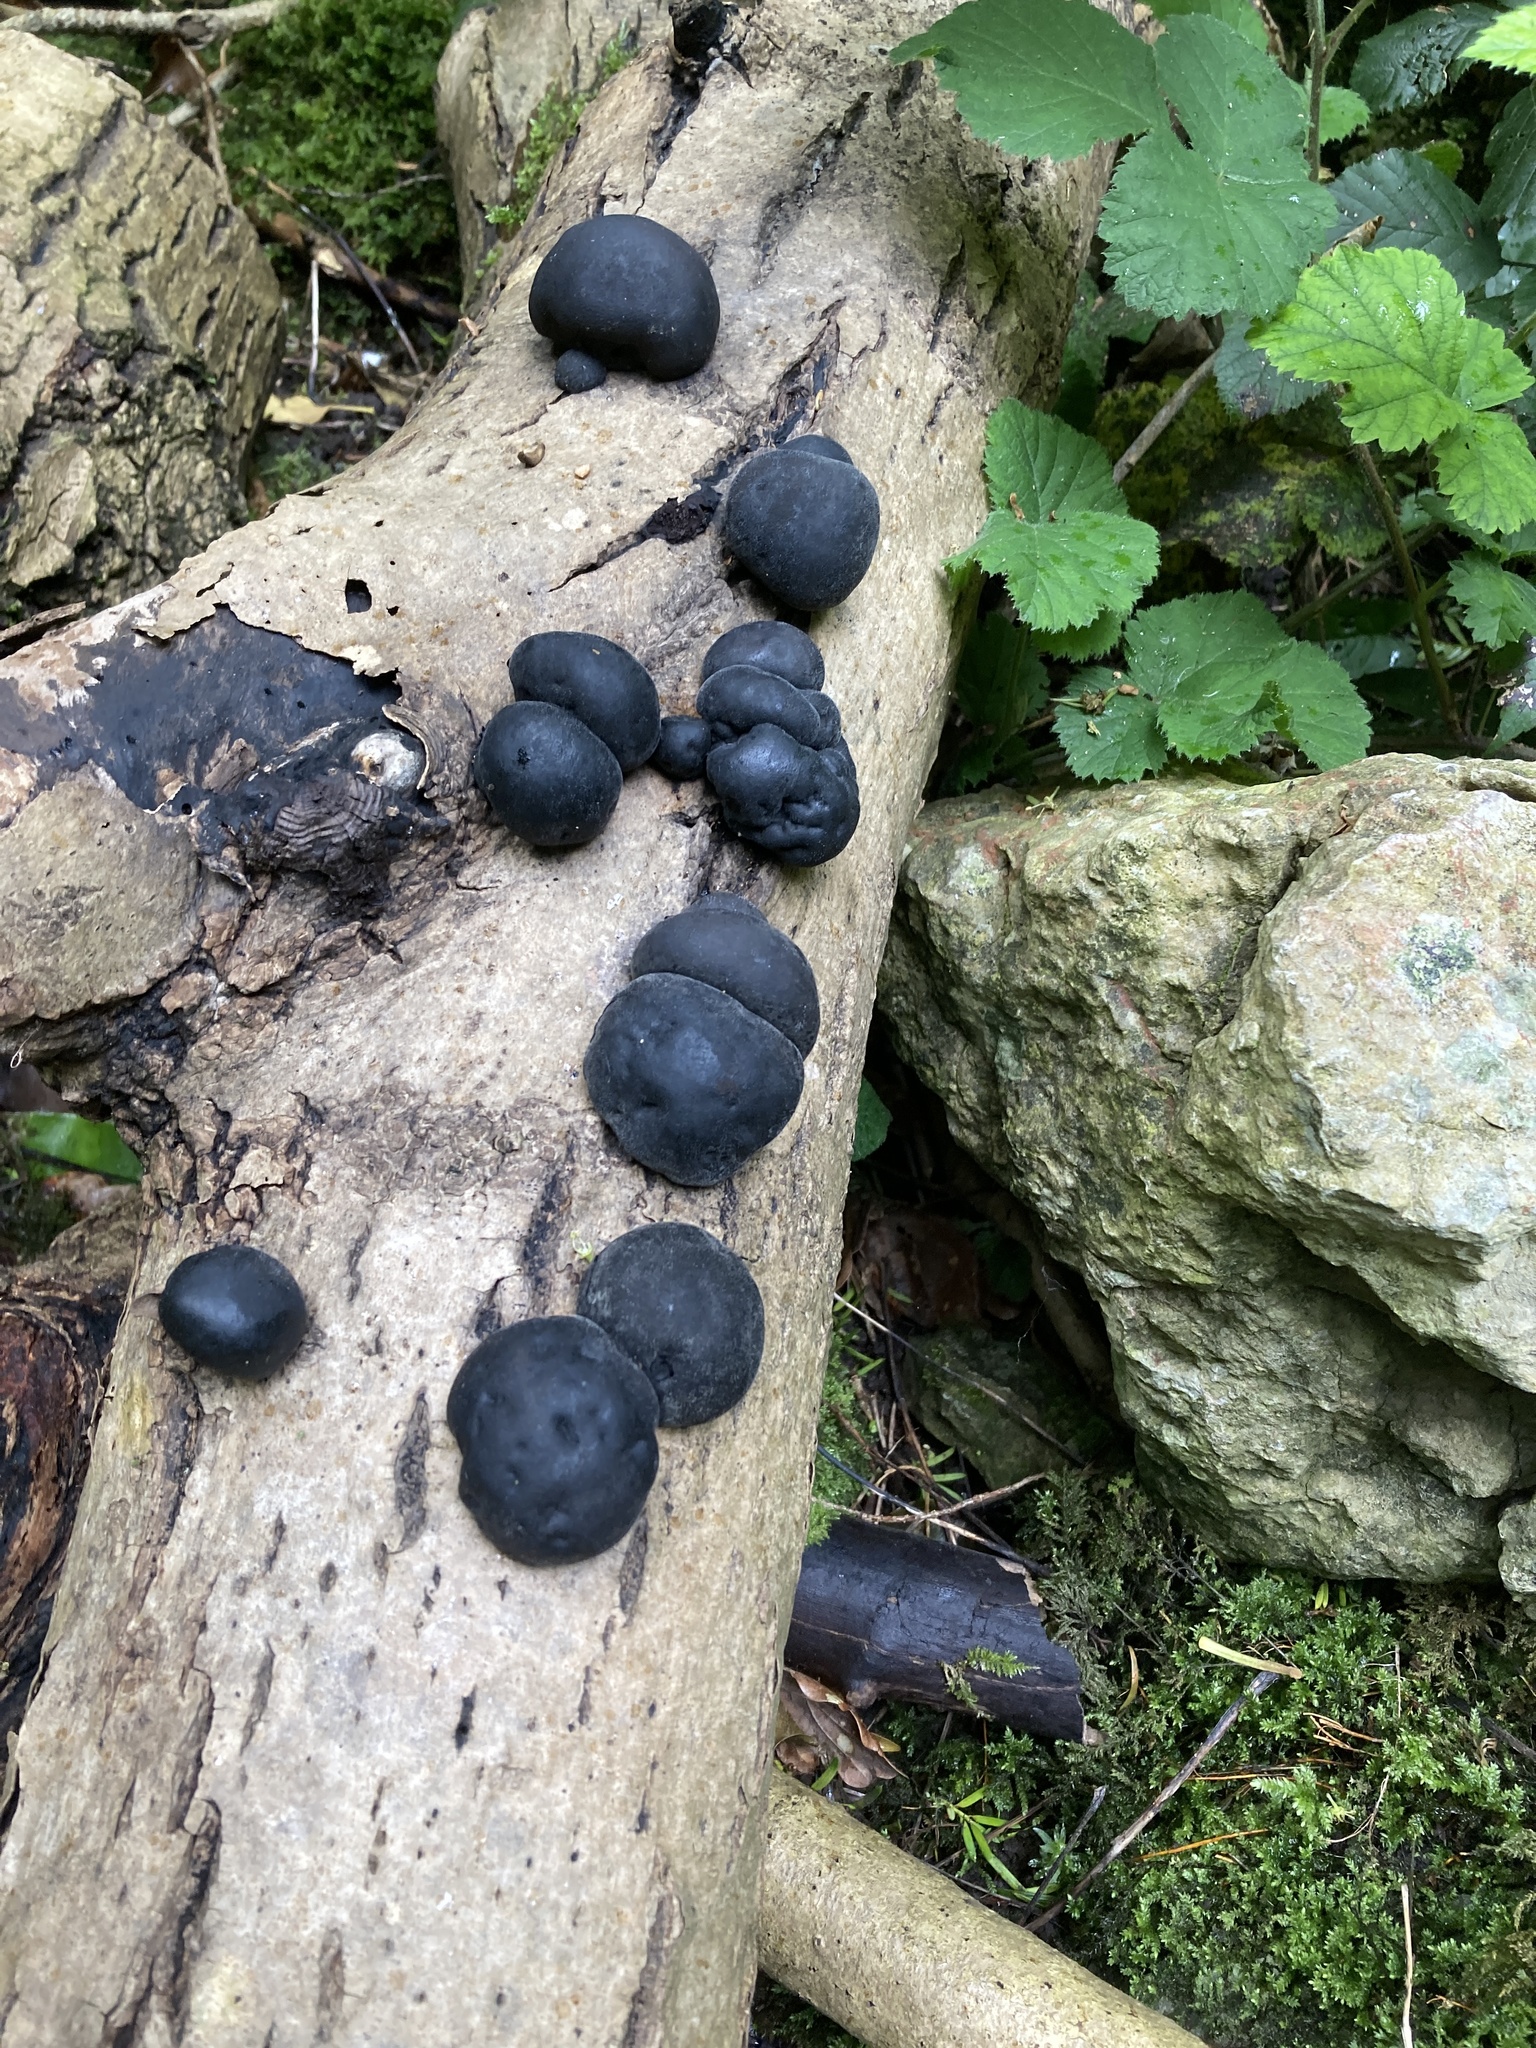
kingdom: Fungi
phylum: Ascomycota
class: Sordariomycetes
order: Xylariales
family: Hypoxylaceae
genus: Daldinia
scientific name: Daldinia concentrica
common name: Cramp balls
